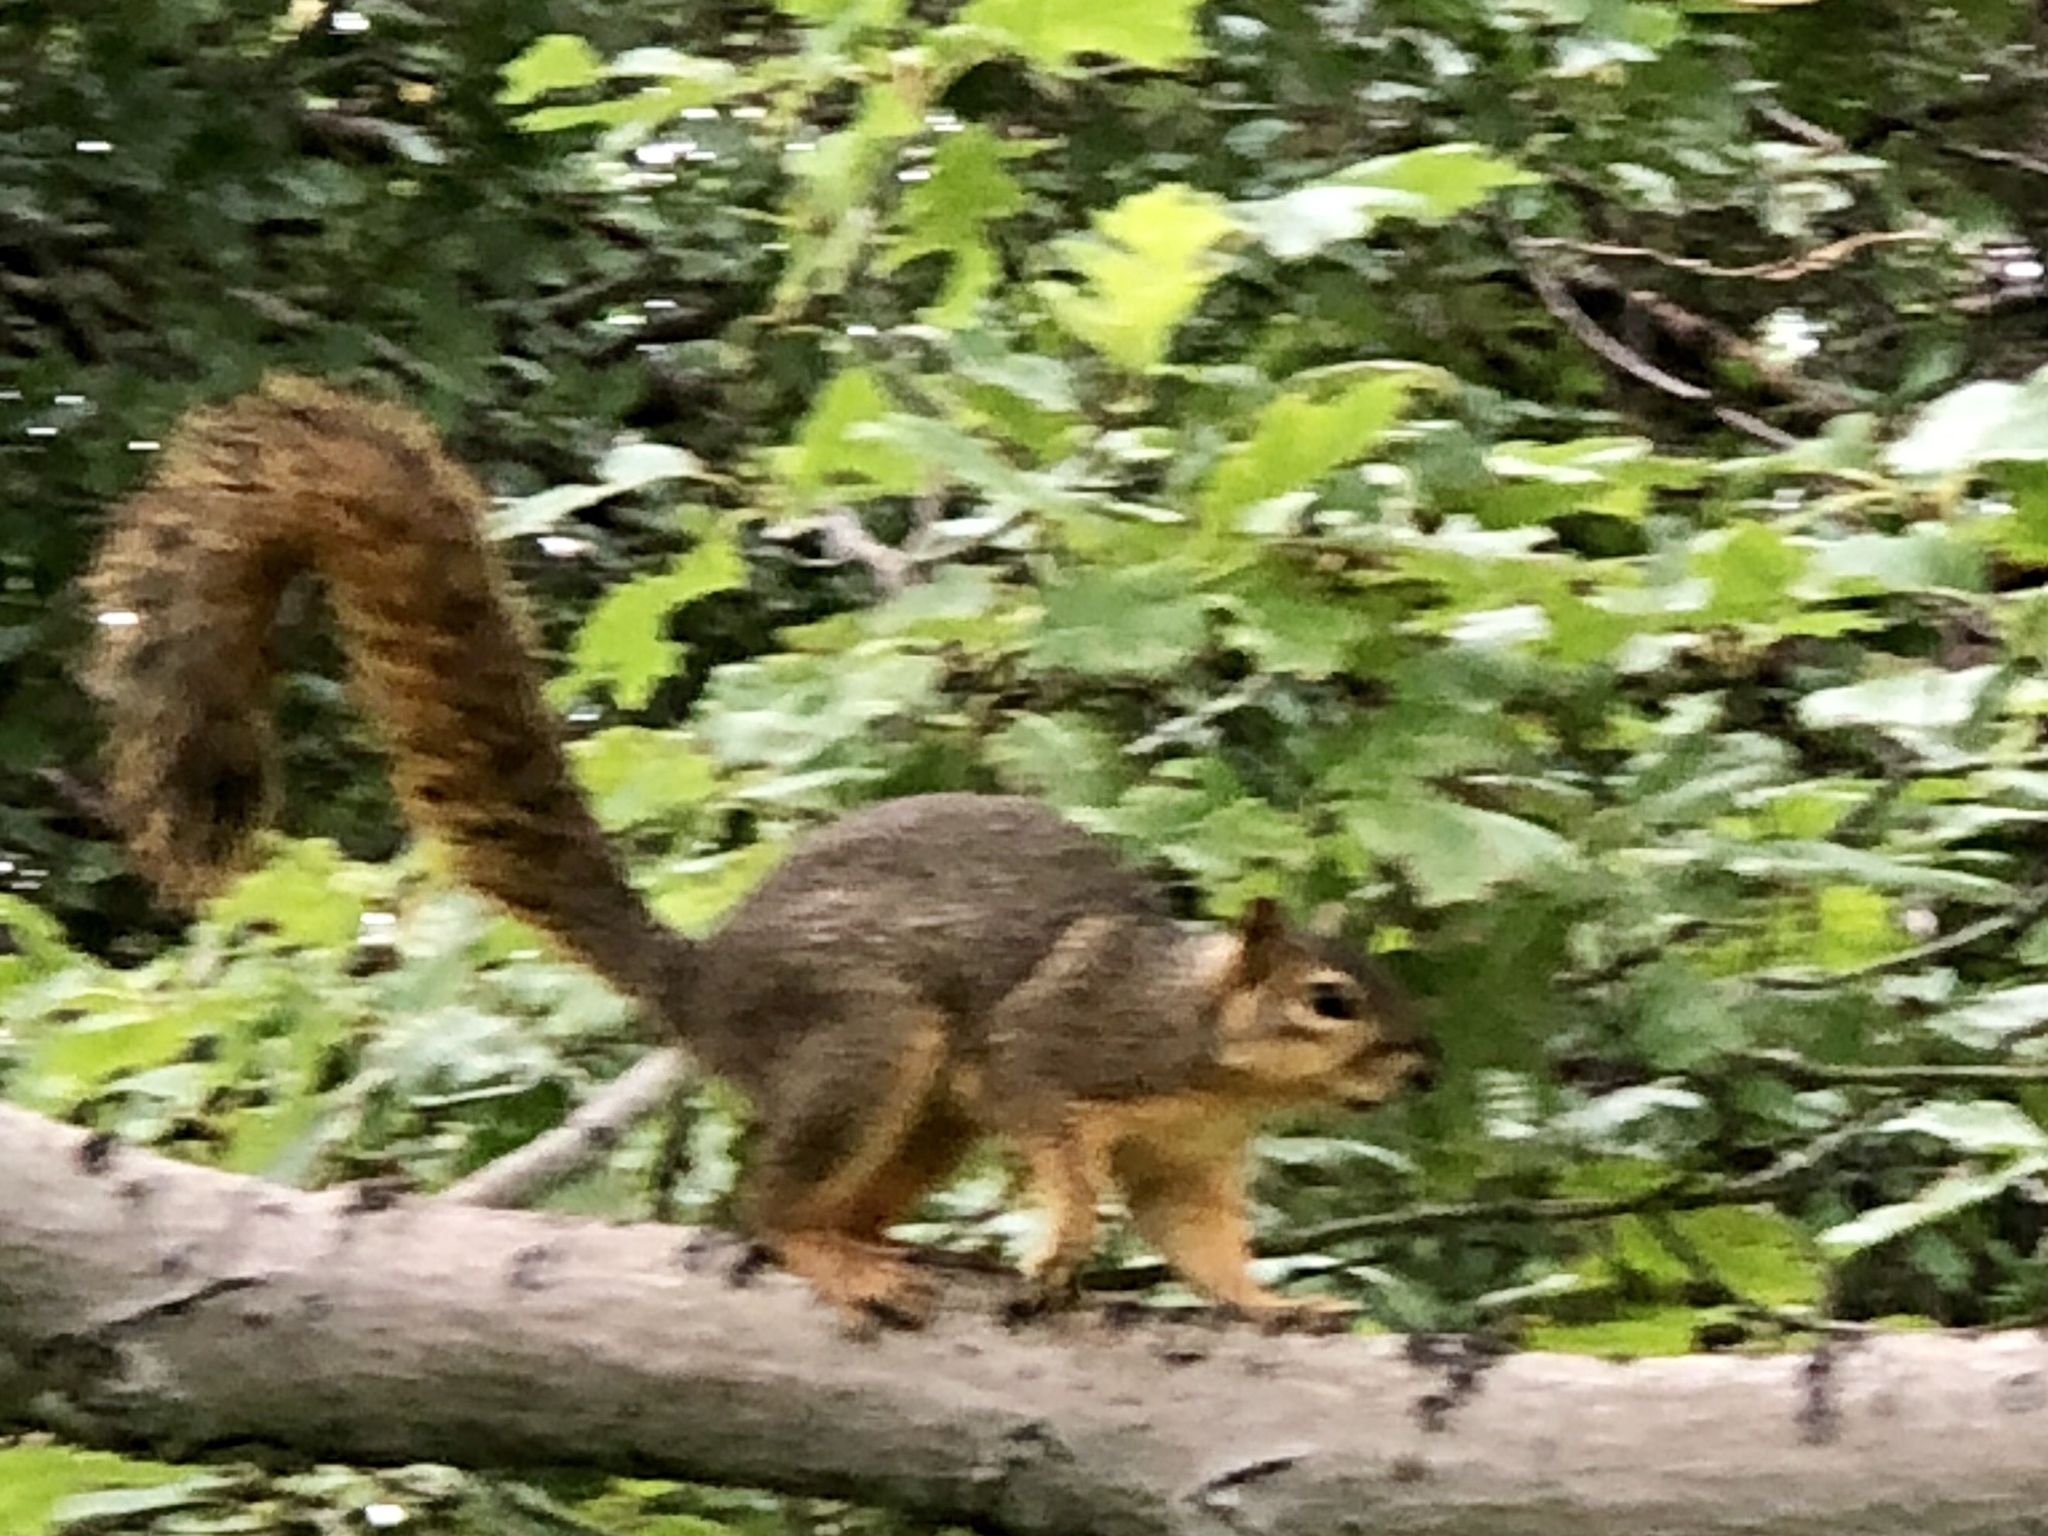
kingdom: Animalia
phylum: Chordata
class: Mammalia
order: Rodentia
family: Sciuridae
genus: Sciurus
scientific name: Sciurus niger
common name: Fox squirrel
